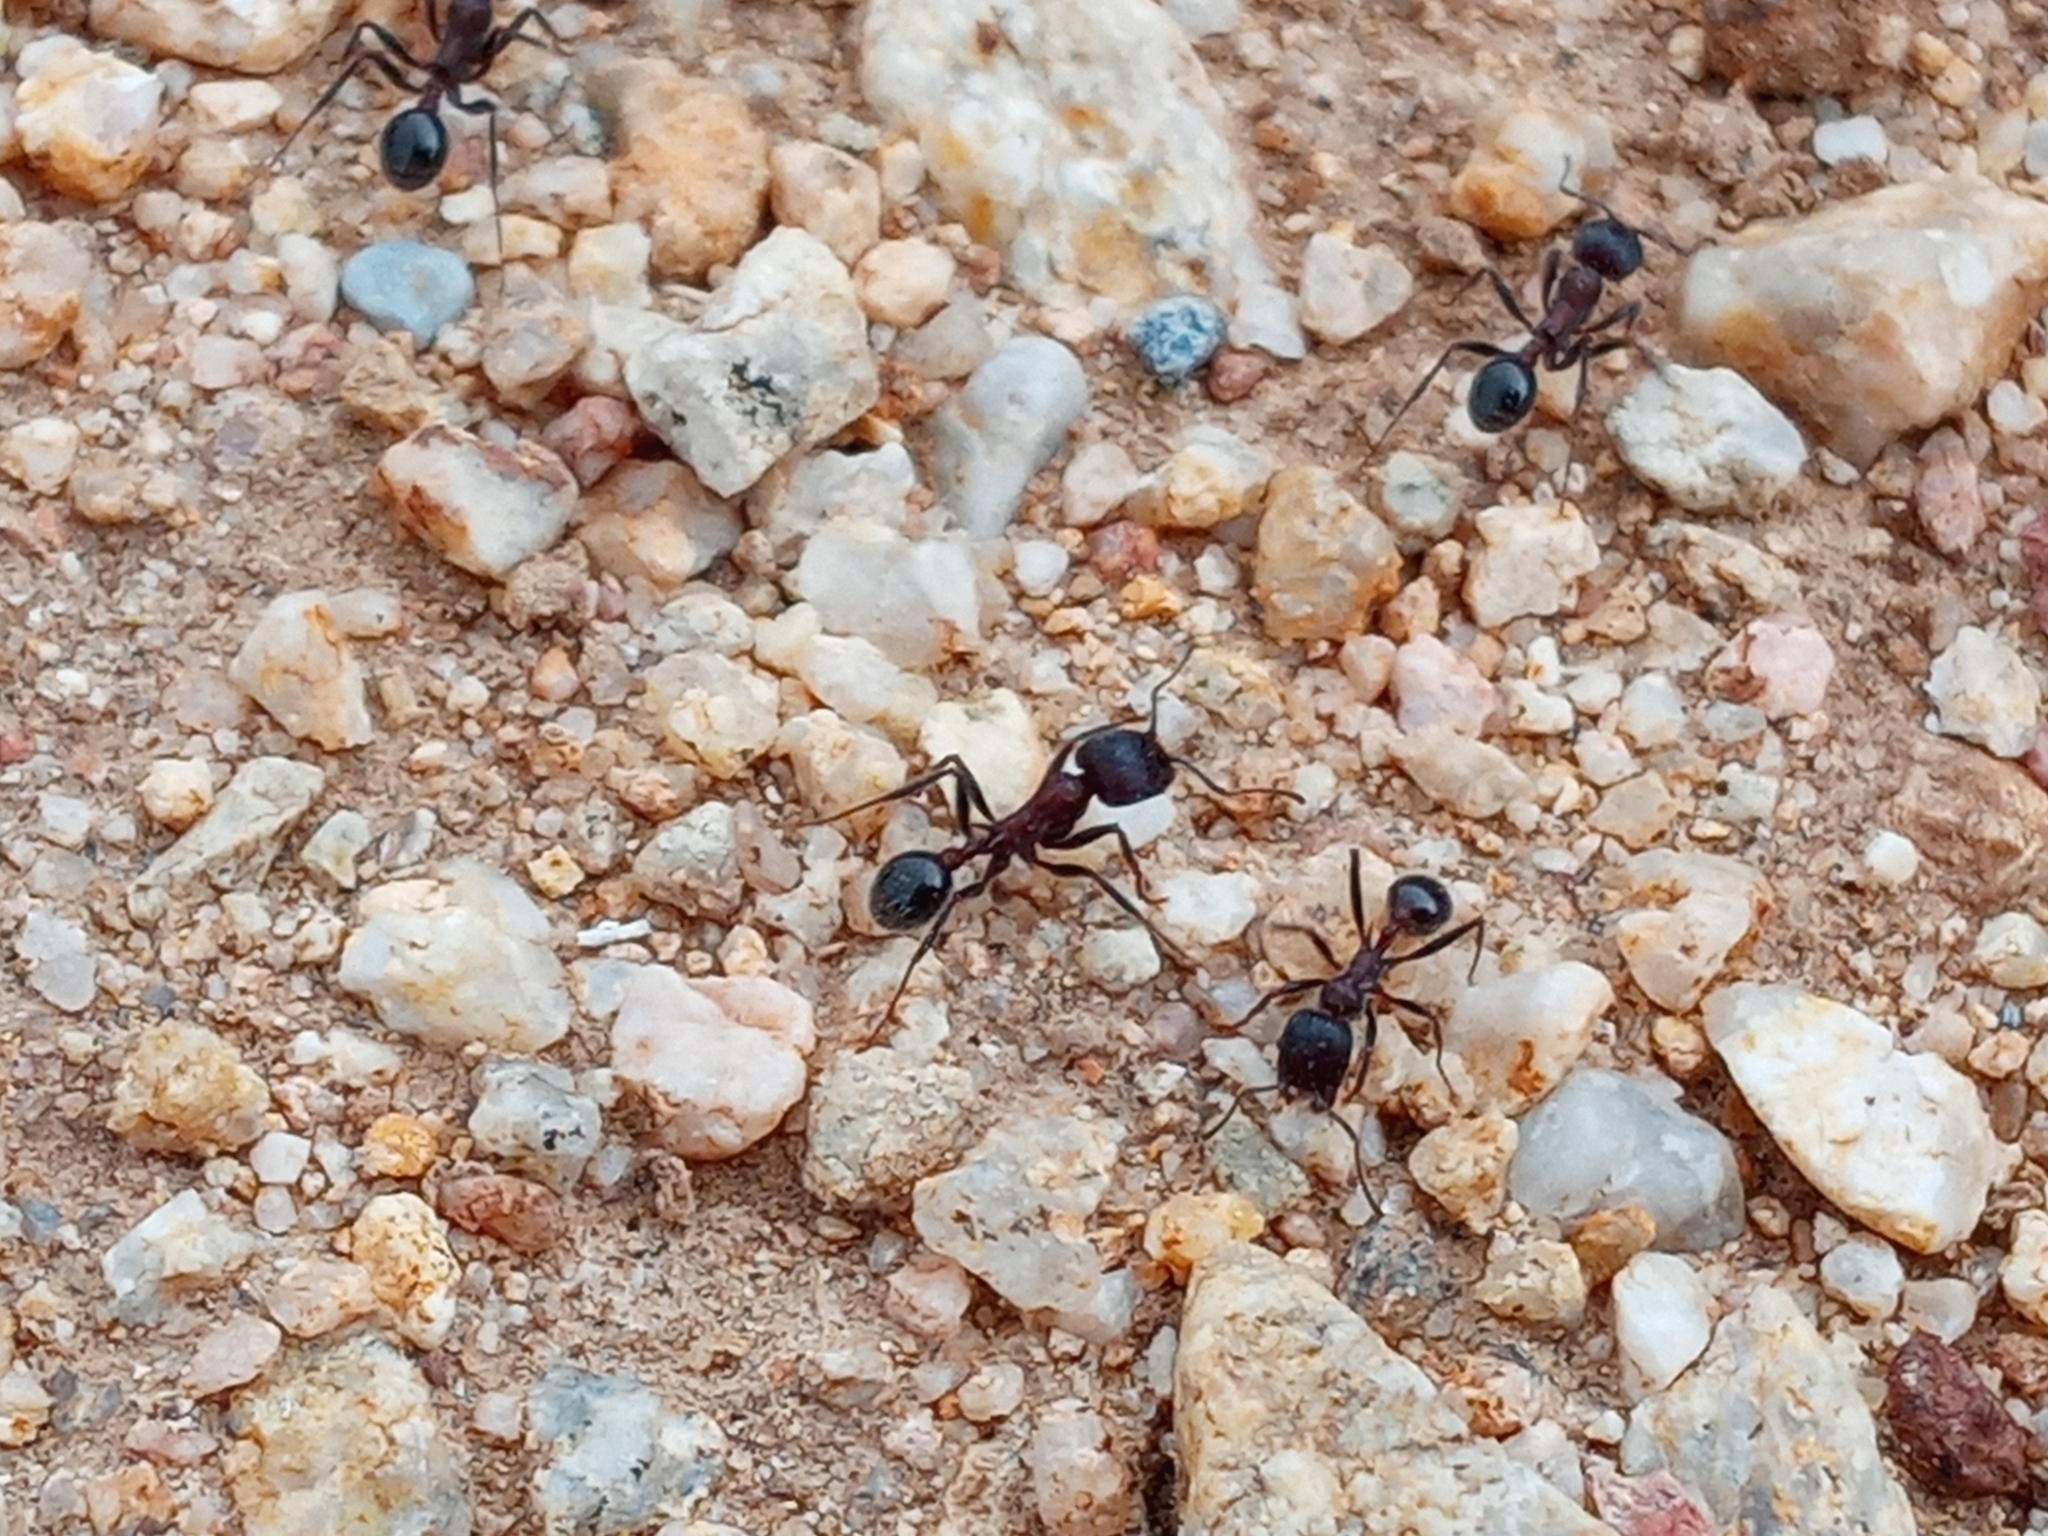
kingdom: Animalia
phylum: Arthropoda
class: Insecta
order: Hymenoptera
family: Formicidae
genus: Veromessor
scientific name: Veromessor andrei
